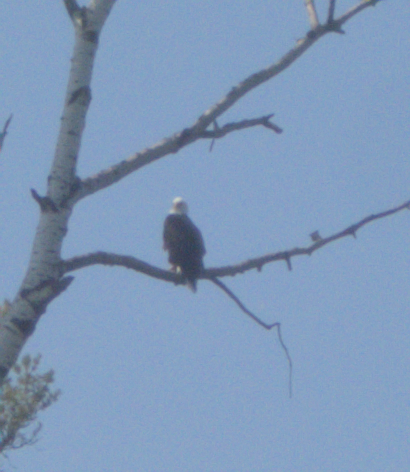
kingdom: Animalia
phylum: Chordata
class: Aves
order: Accipitriformes
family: Accipitridae
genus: Haliaeetus
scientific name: Haliaeetus leucocephalus
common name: Bald eagle
